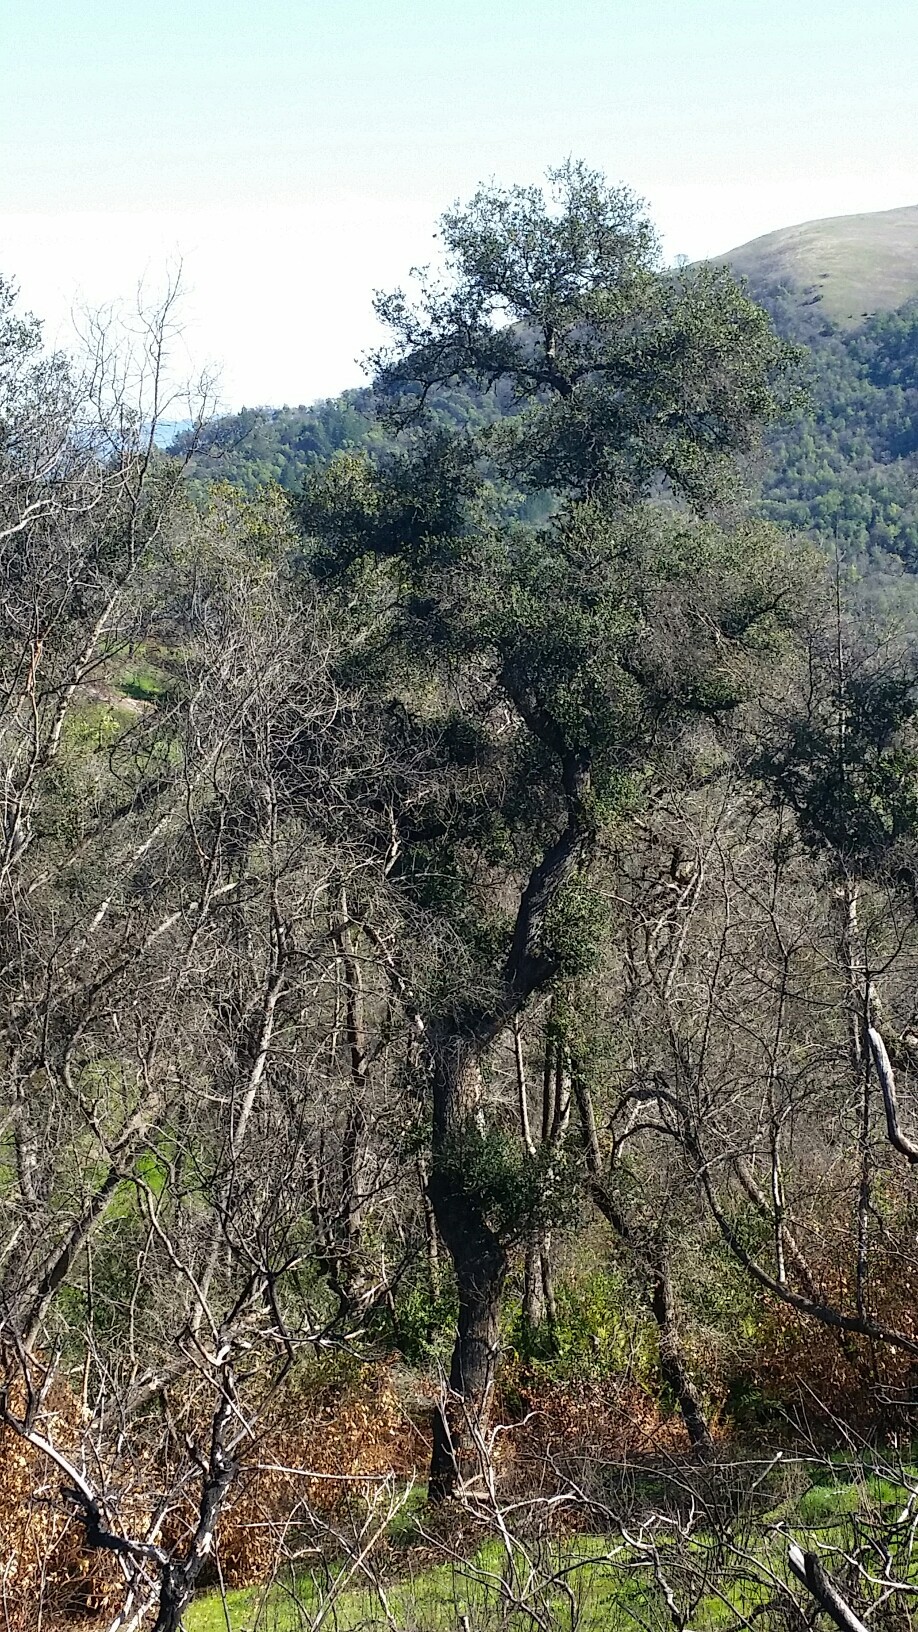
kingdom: Plantae
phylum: Tracheophyta
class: Magnoliopsida
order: Fagales
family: Fagaceae
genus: Quercus
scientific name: Quercus agrifolia
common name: California live oak
